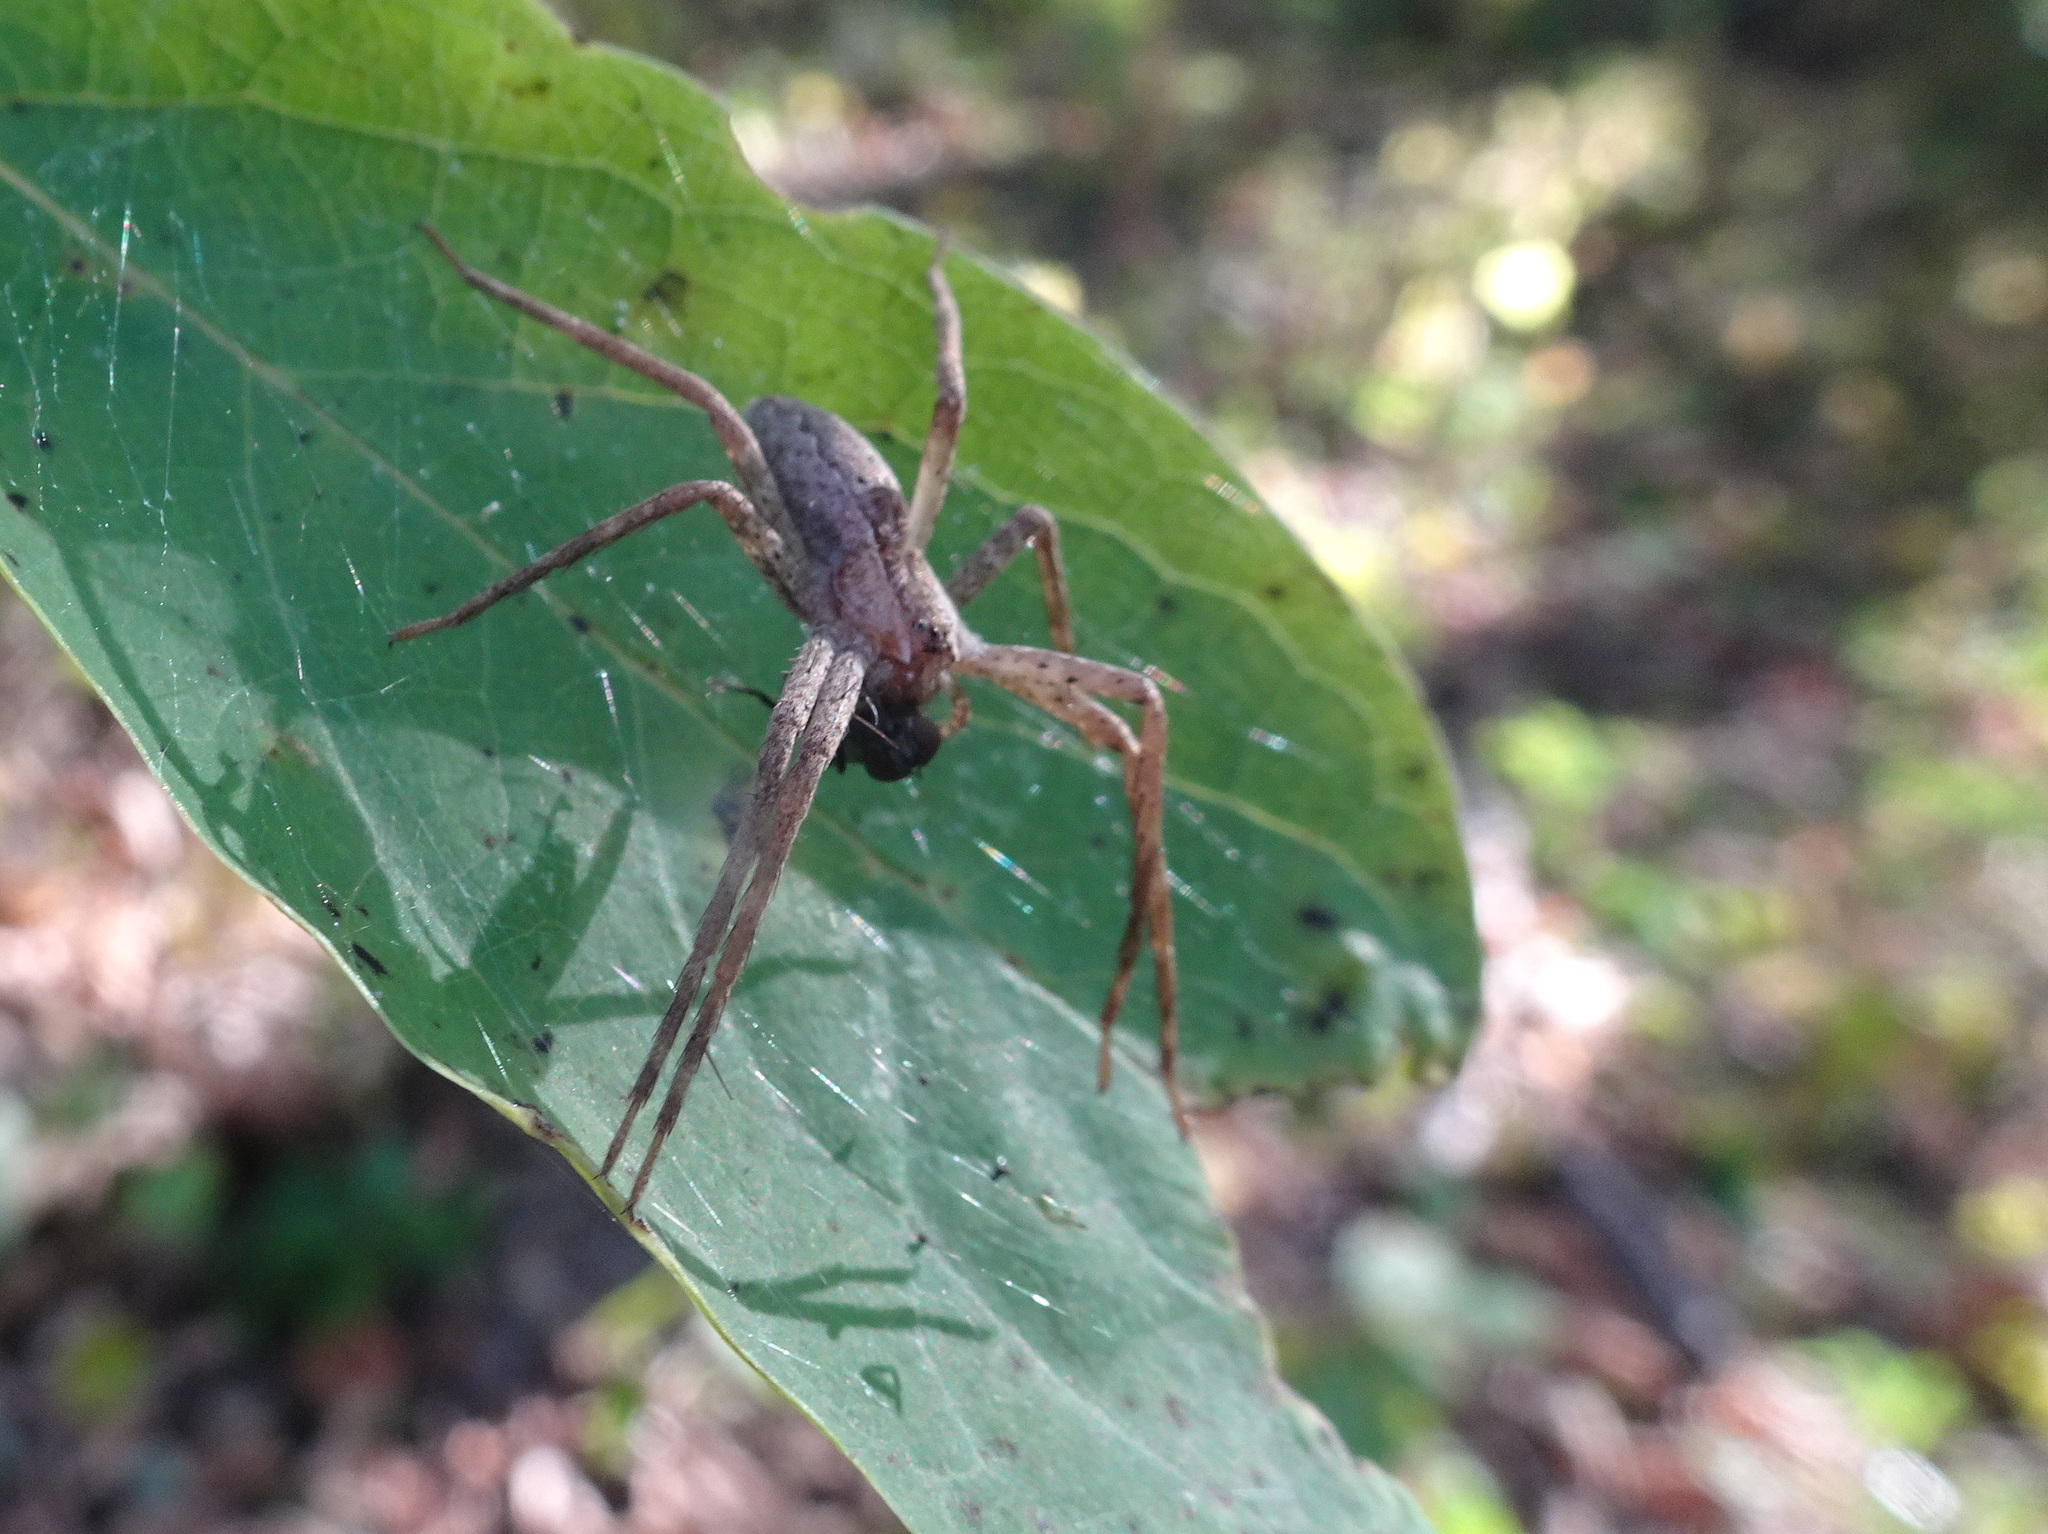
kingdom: Animalia
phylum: Arthropoda
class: Arachnida
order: Araneae
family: Pisauridae
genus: Pisaurina
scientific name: Pisaurina mira
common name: American nursery web spider
